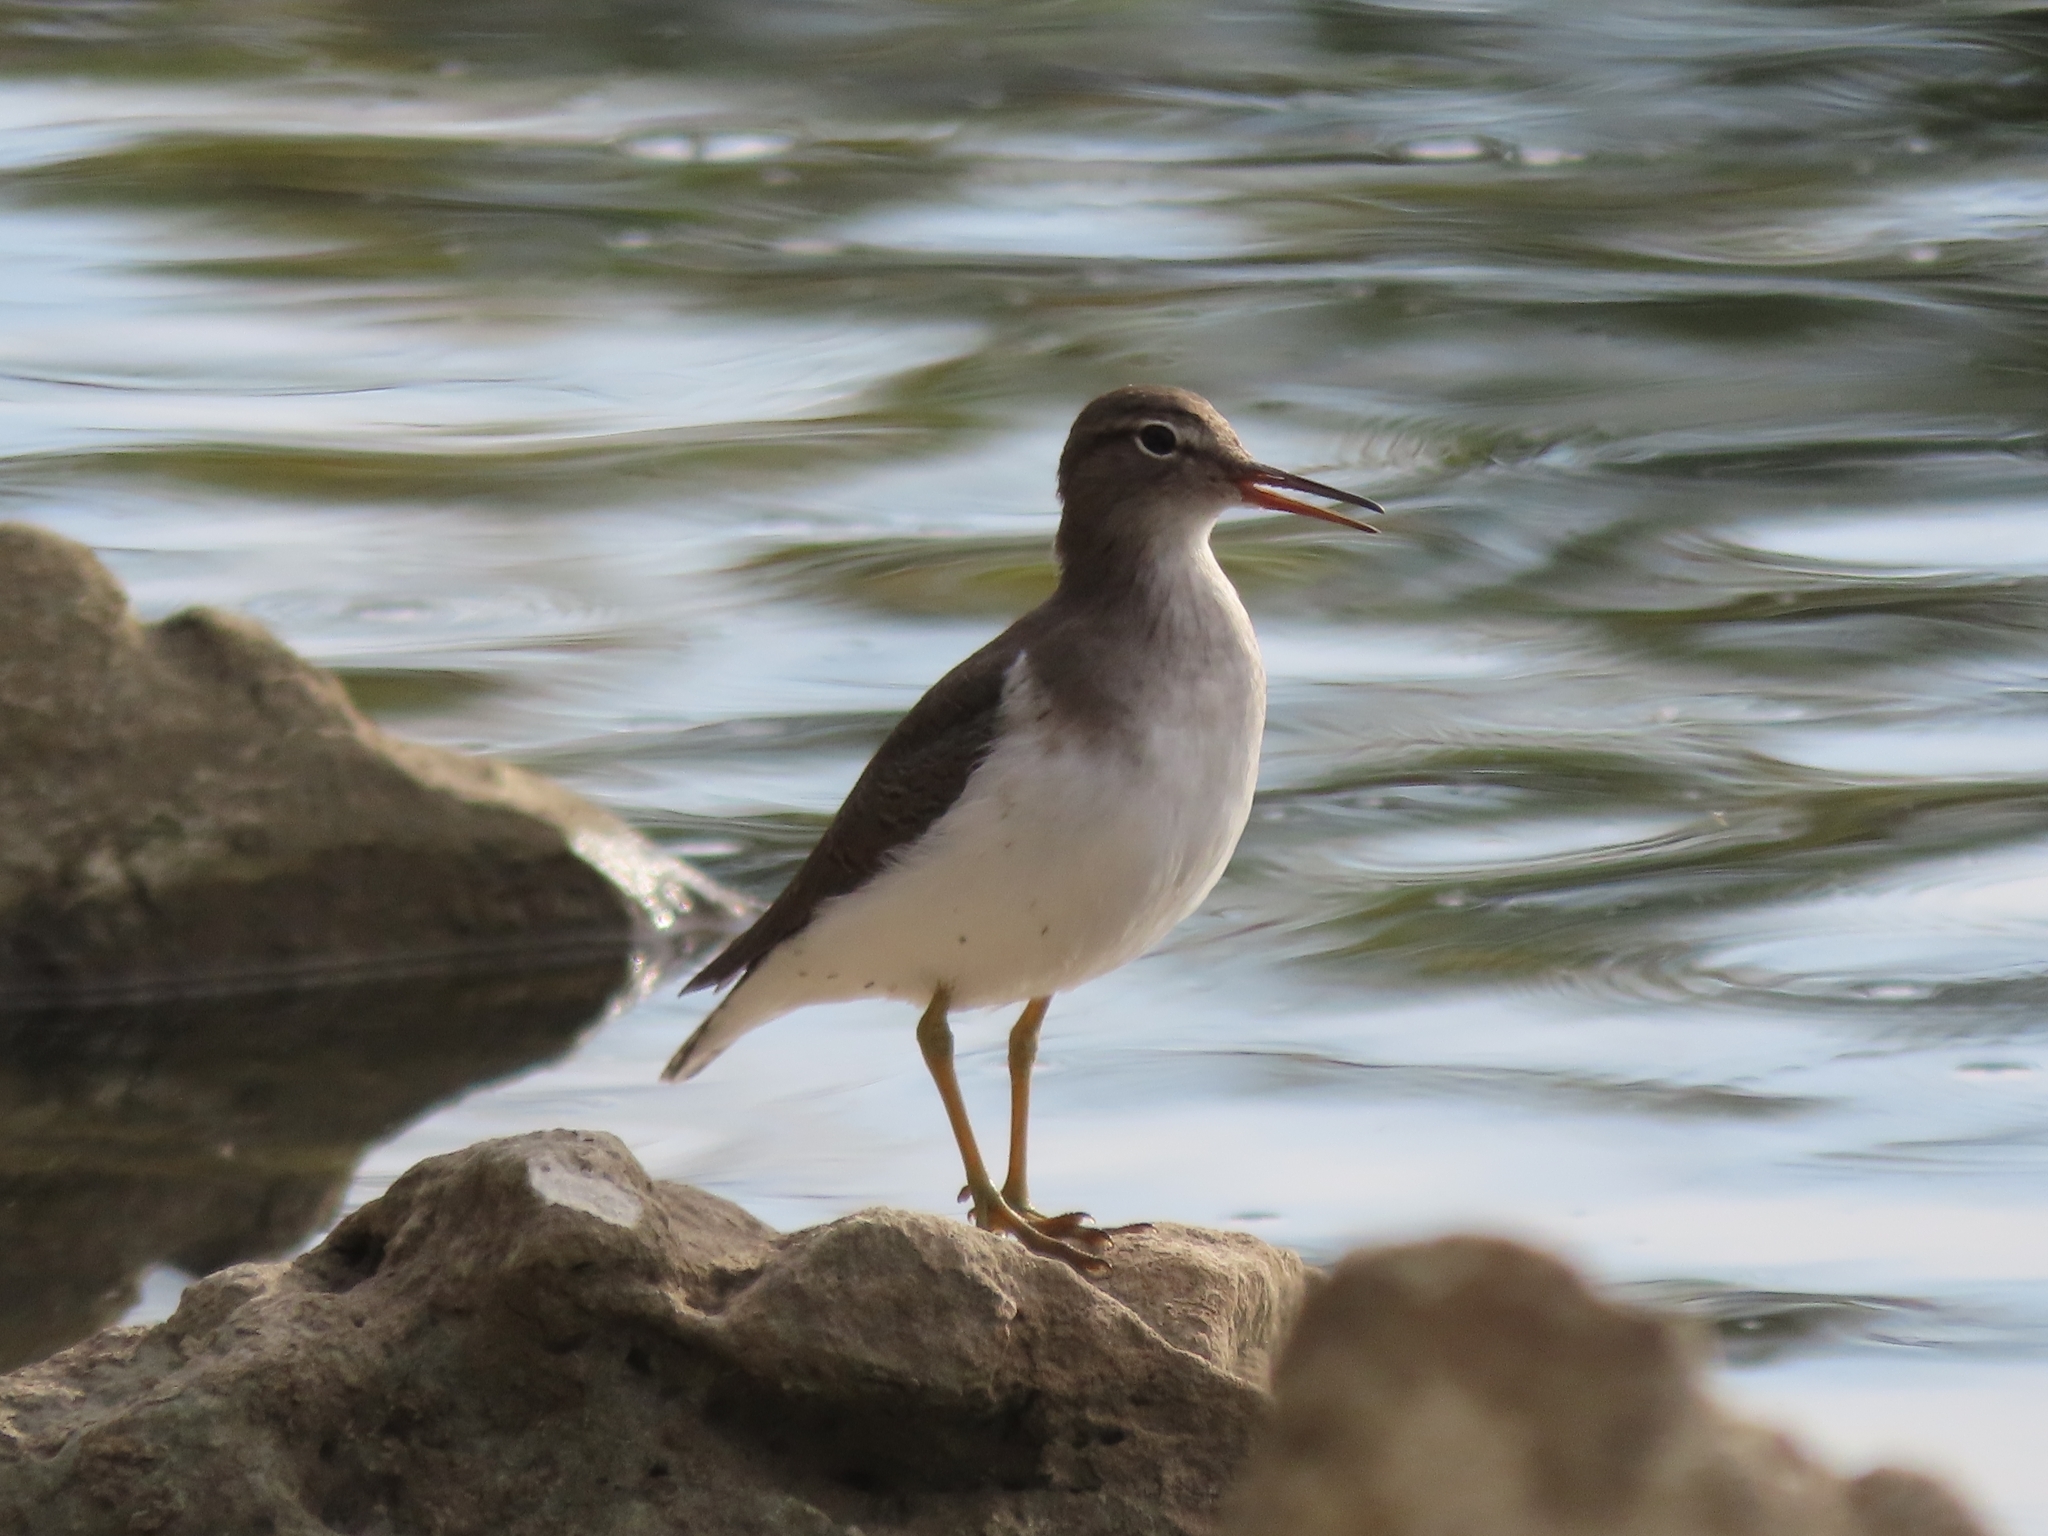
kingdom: Animalia
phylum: Chordata
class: Aves
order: Charadriiformes
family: Scolopacidae
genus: Actitis
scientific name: Actitis macularius
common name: Spotted sandpiper
